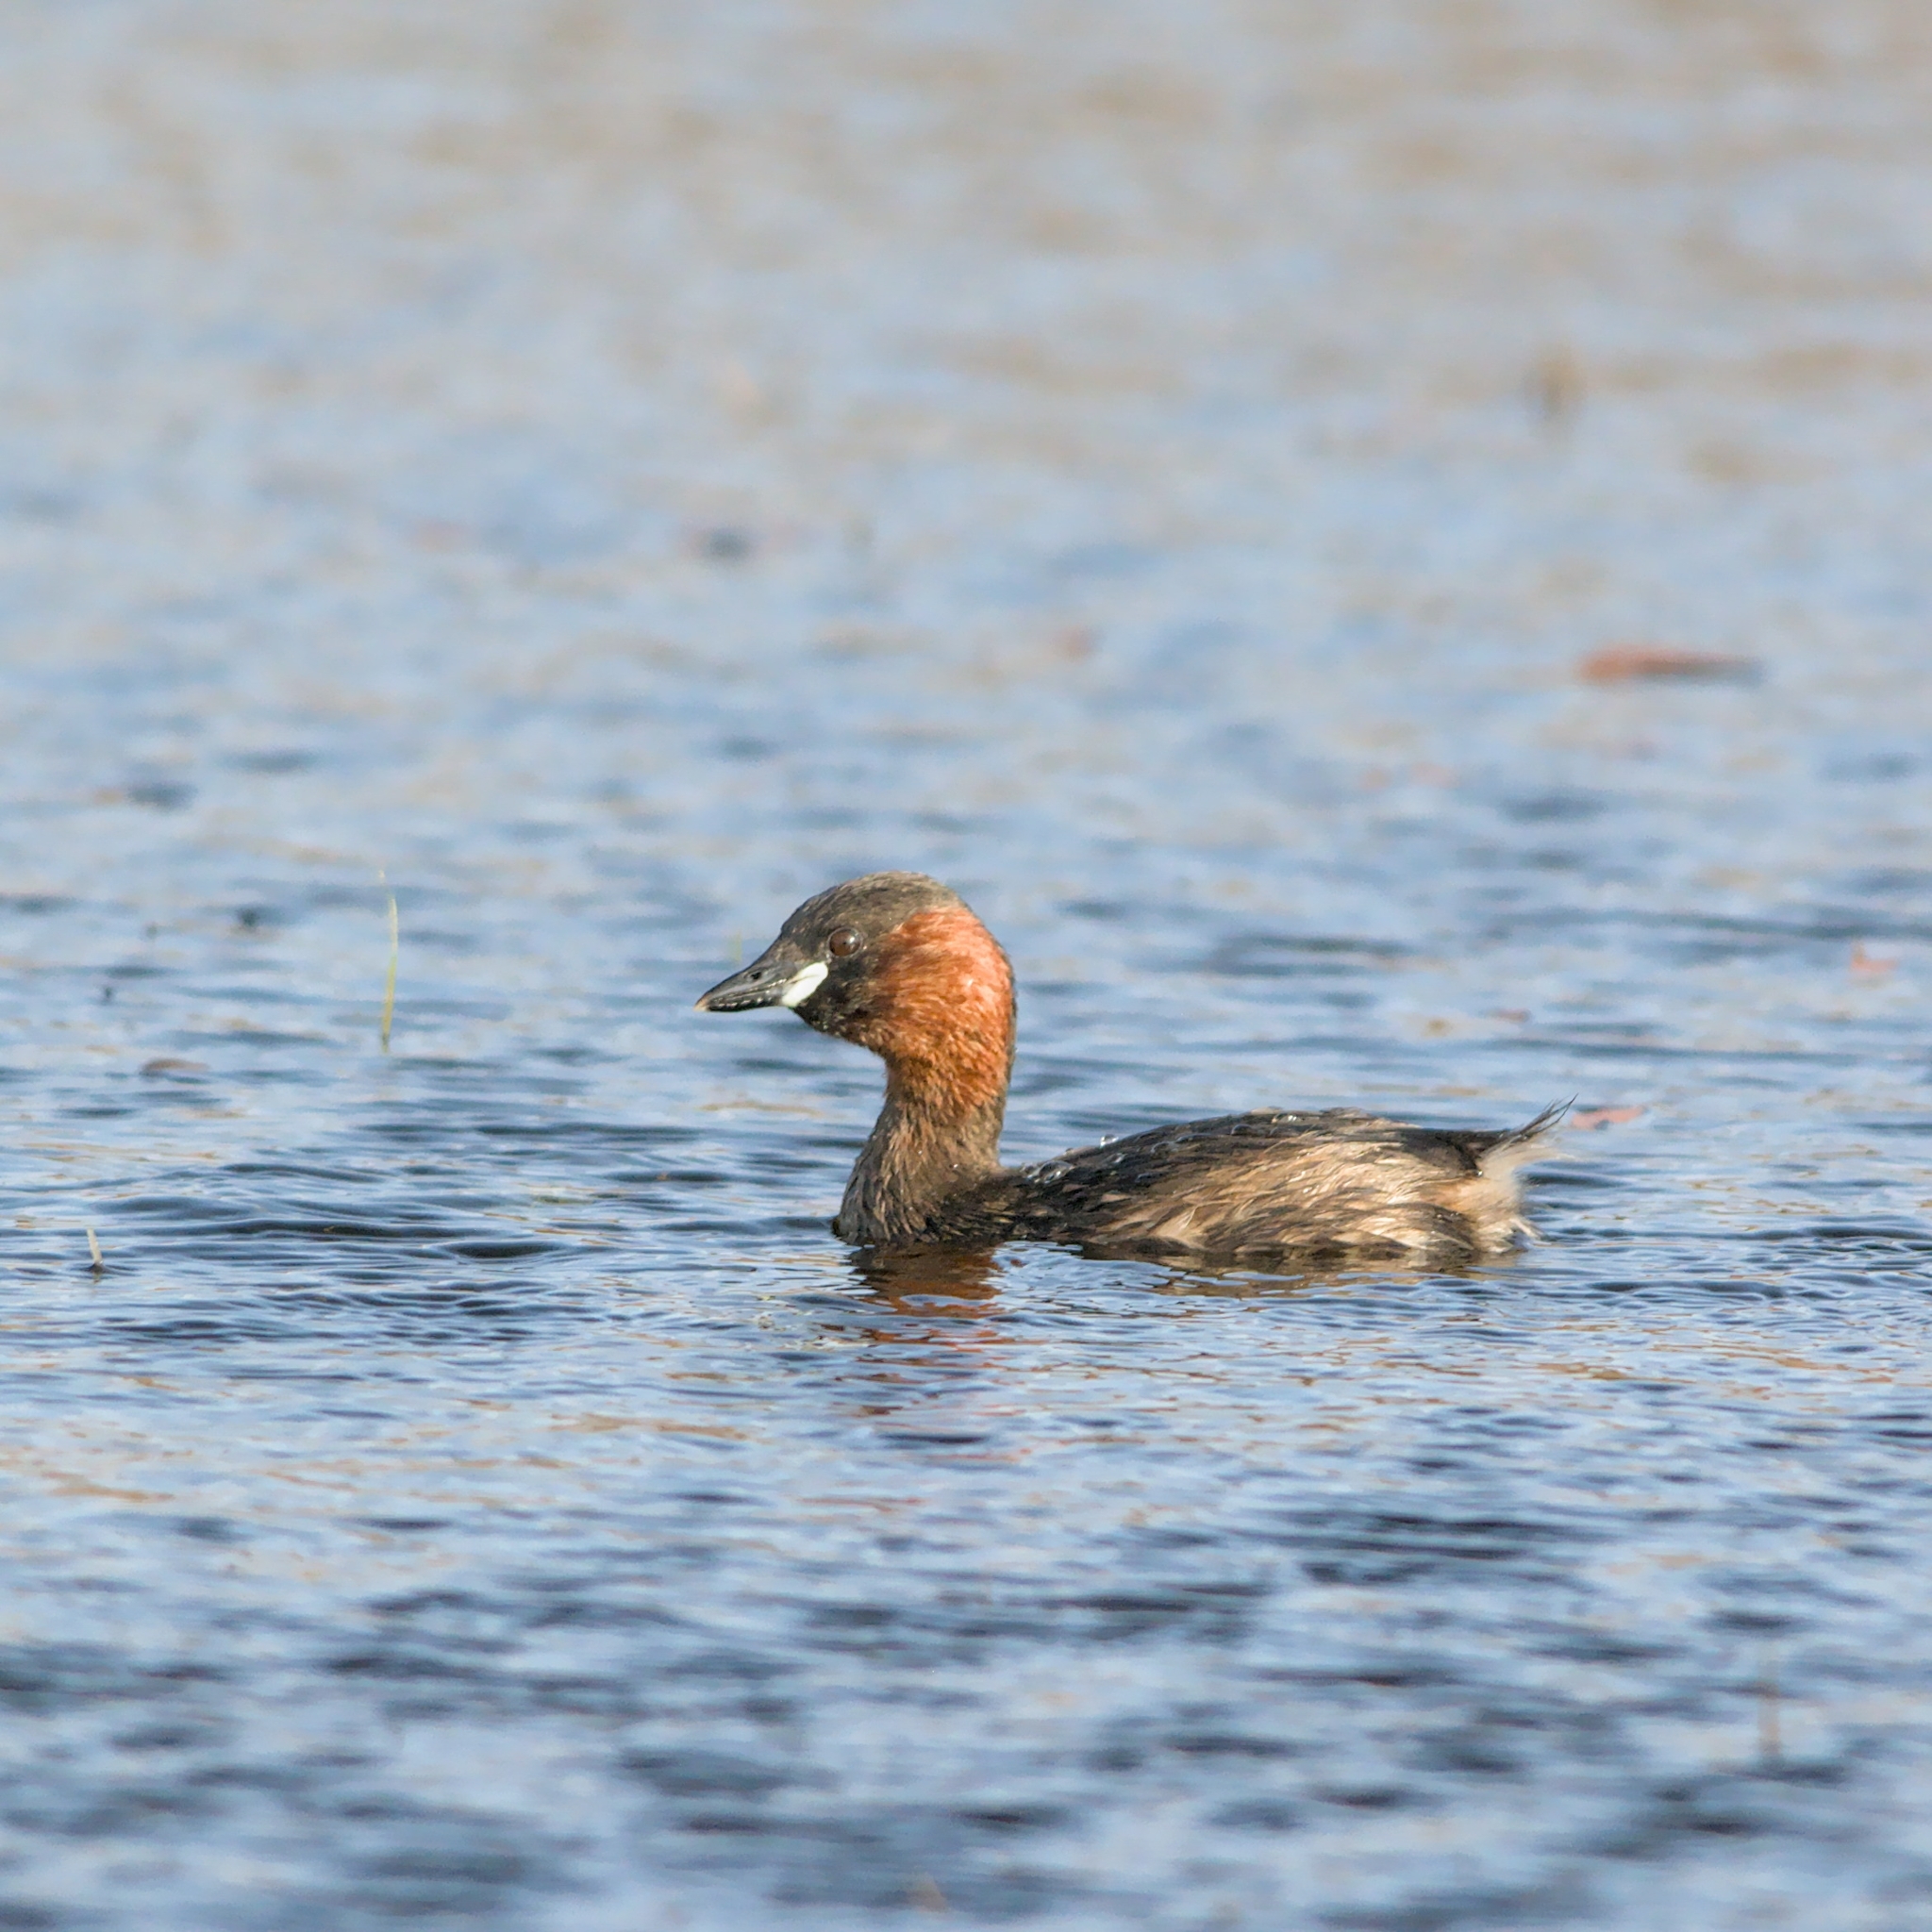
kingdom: Animalia
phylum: Chordata
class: Aves
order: Podicipediformes
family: Podicipedidae
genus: Tachybaptus
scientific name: Tachybaptus ruficollis
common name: Little grebe
